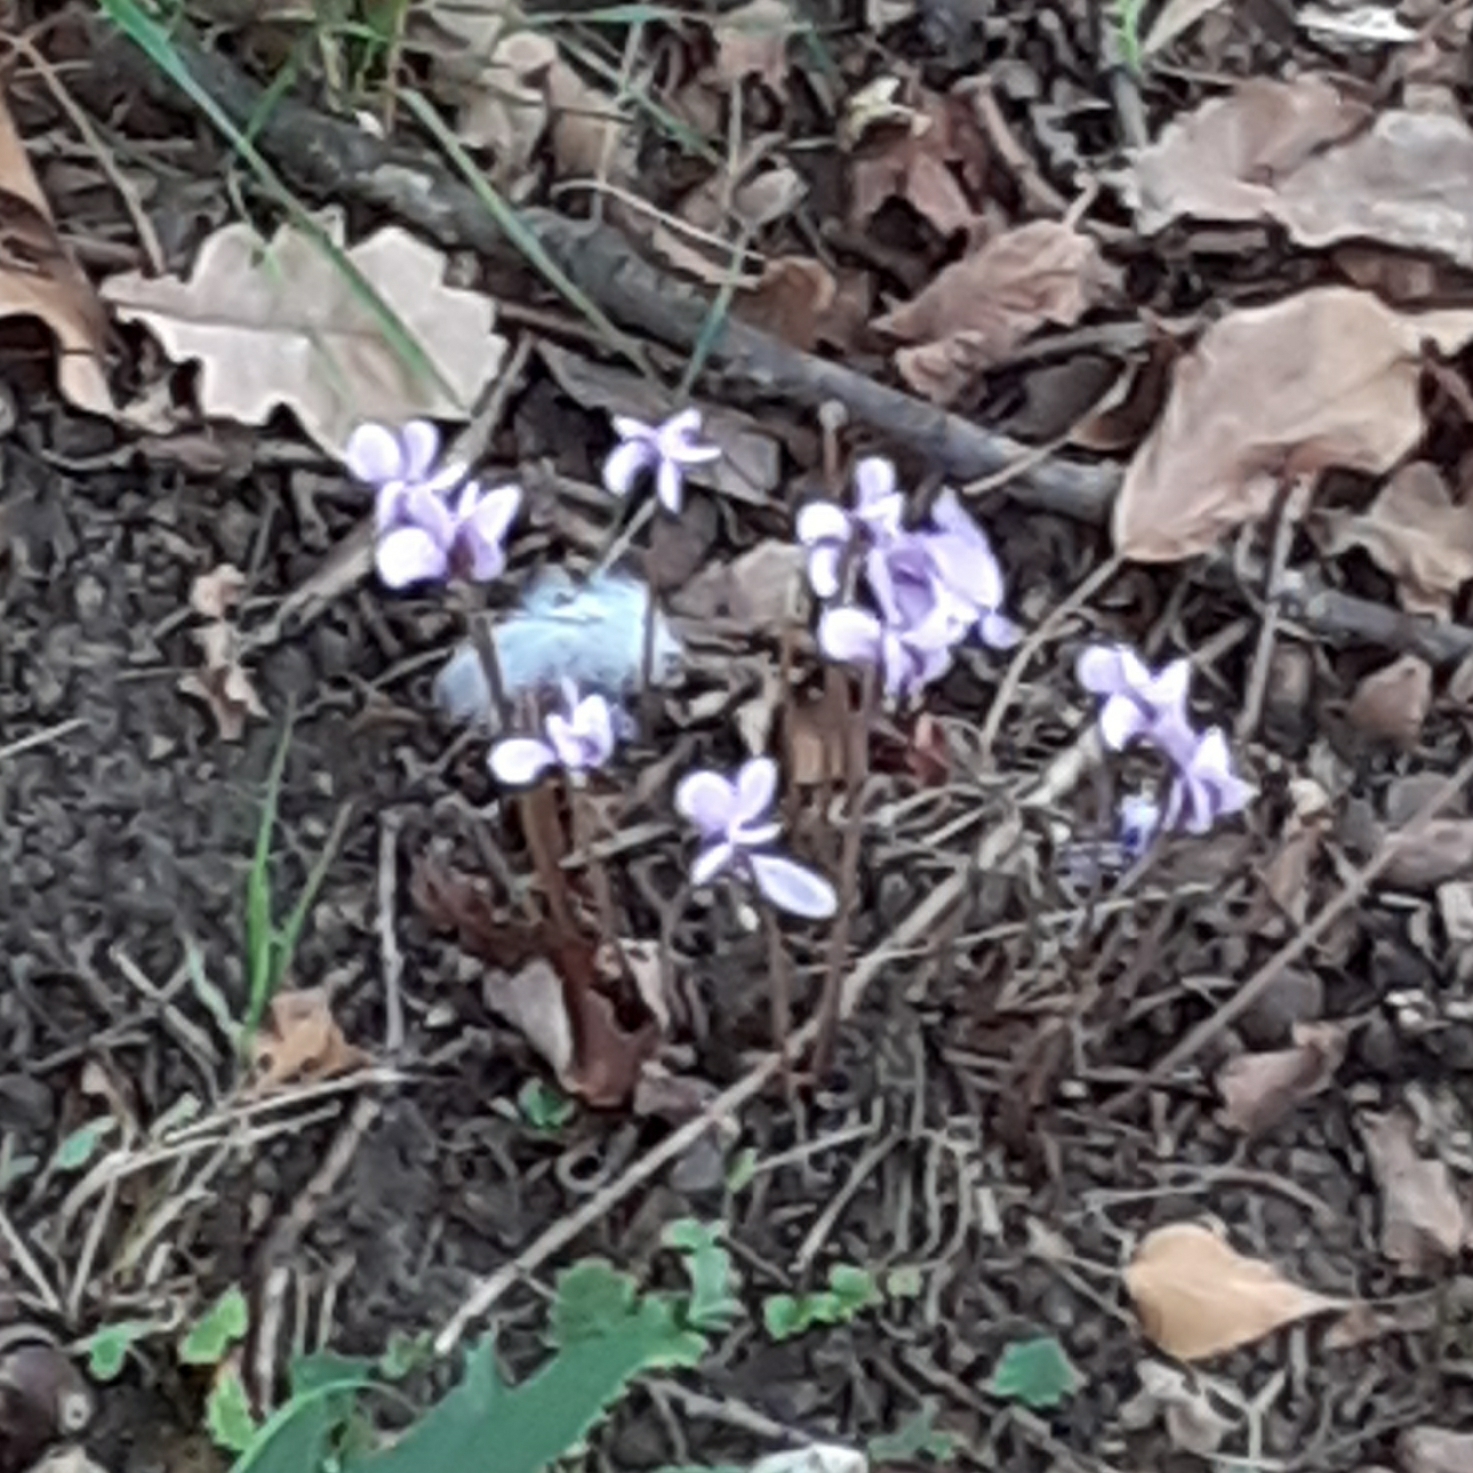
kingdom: Plantae
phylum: Tracheophyta
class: Magnoliopsida
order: Ericales
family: Primulaceae
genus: Cyclamen
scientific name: Cyclamen hederifolium
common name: Sowbread
